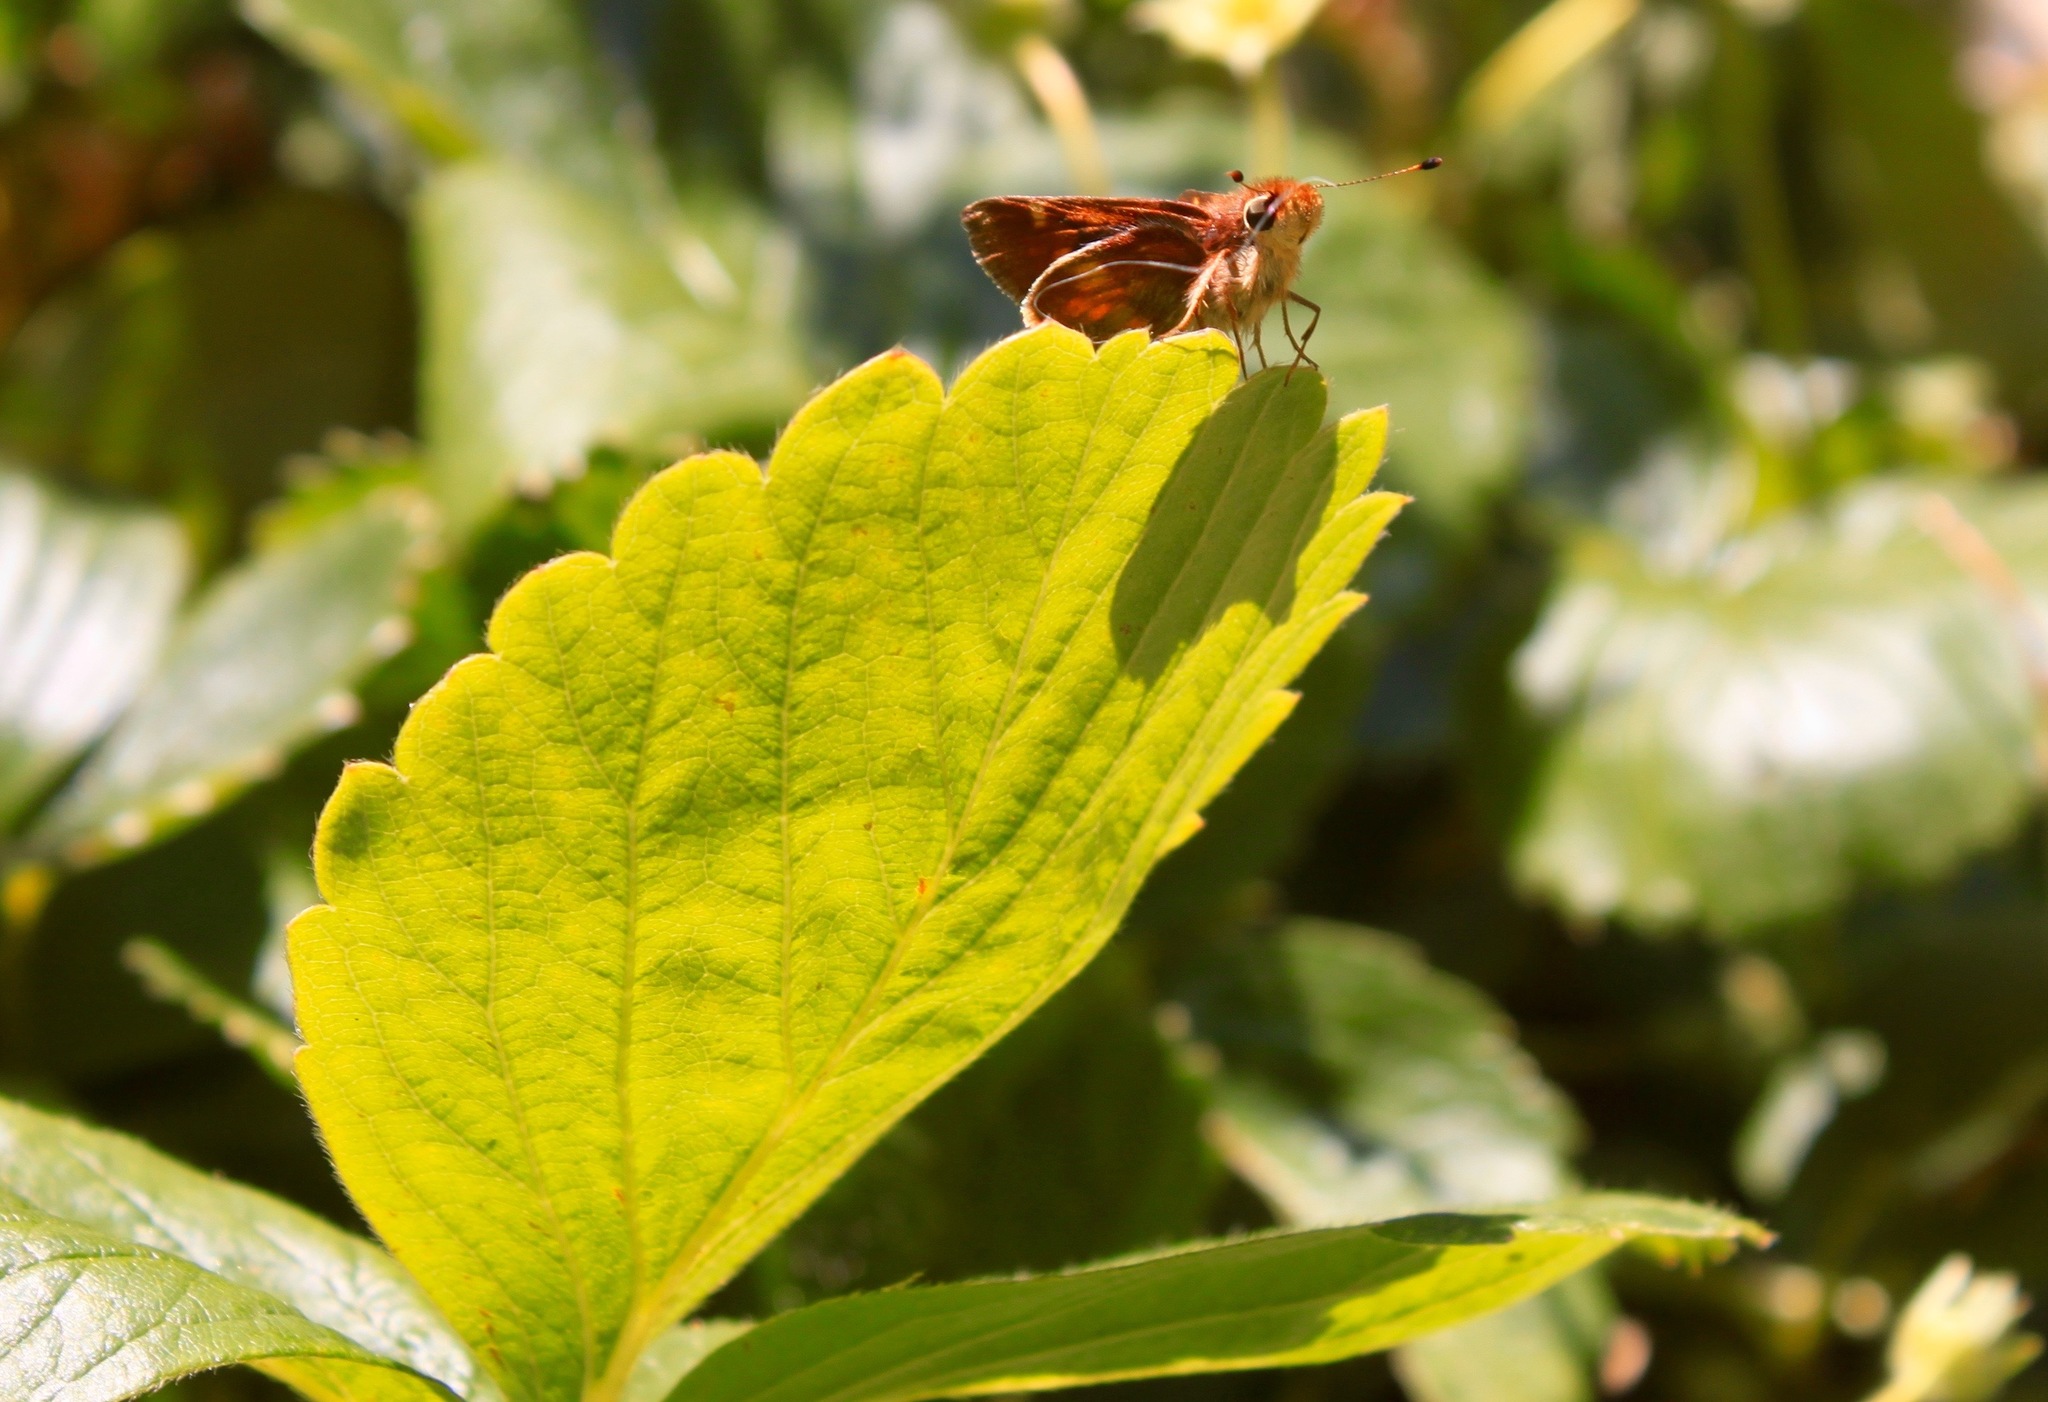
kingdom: Animalia
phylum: Arthropoda
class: Insecta
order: Lepidoptera
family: Hesperiidae
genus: Lon
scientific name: Lon melane
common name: Umber skipper
